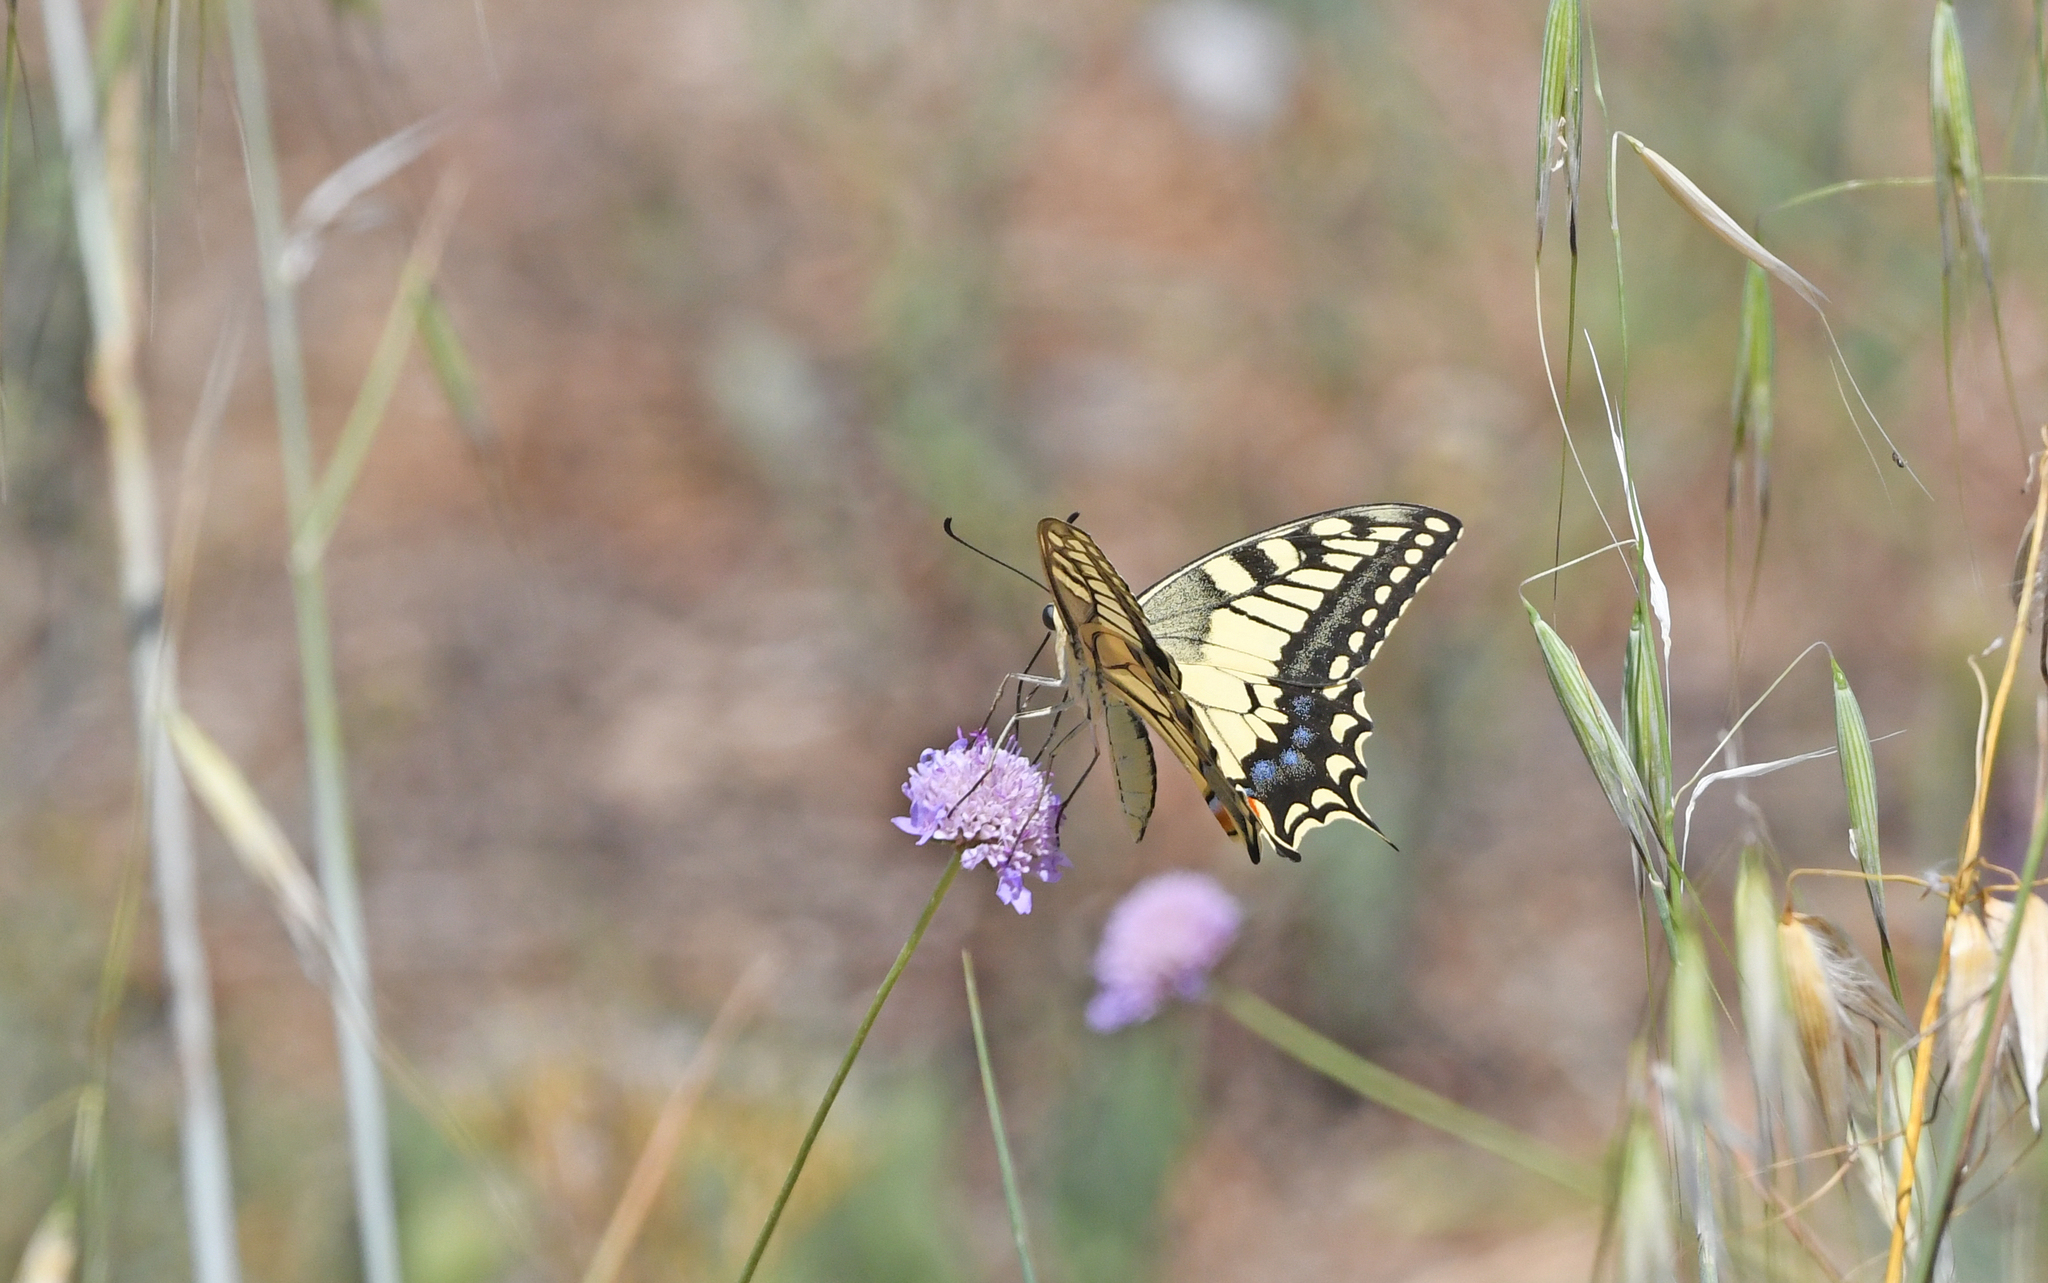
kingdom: Animalia
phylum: Arthropoda
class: Insecta
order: Lepidoptera
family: Papilionidae
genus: Papilio
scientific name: Papilio machaon
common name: Swallowtail
